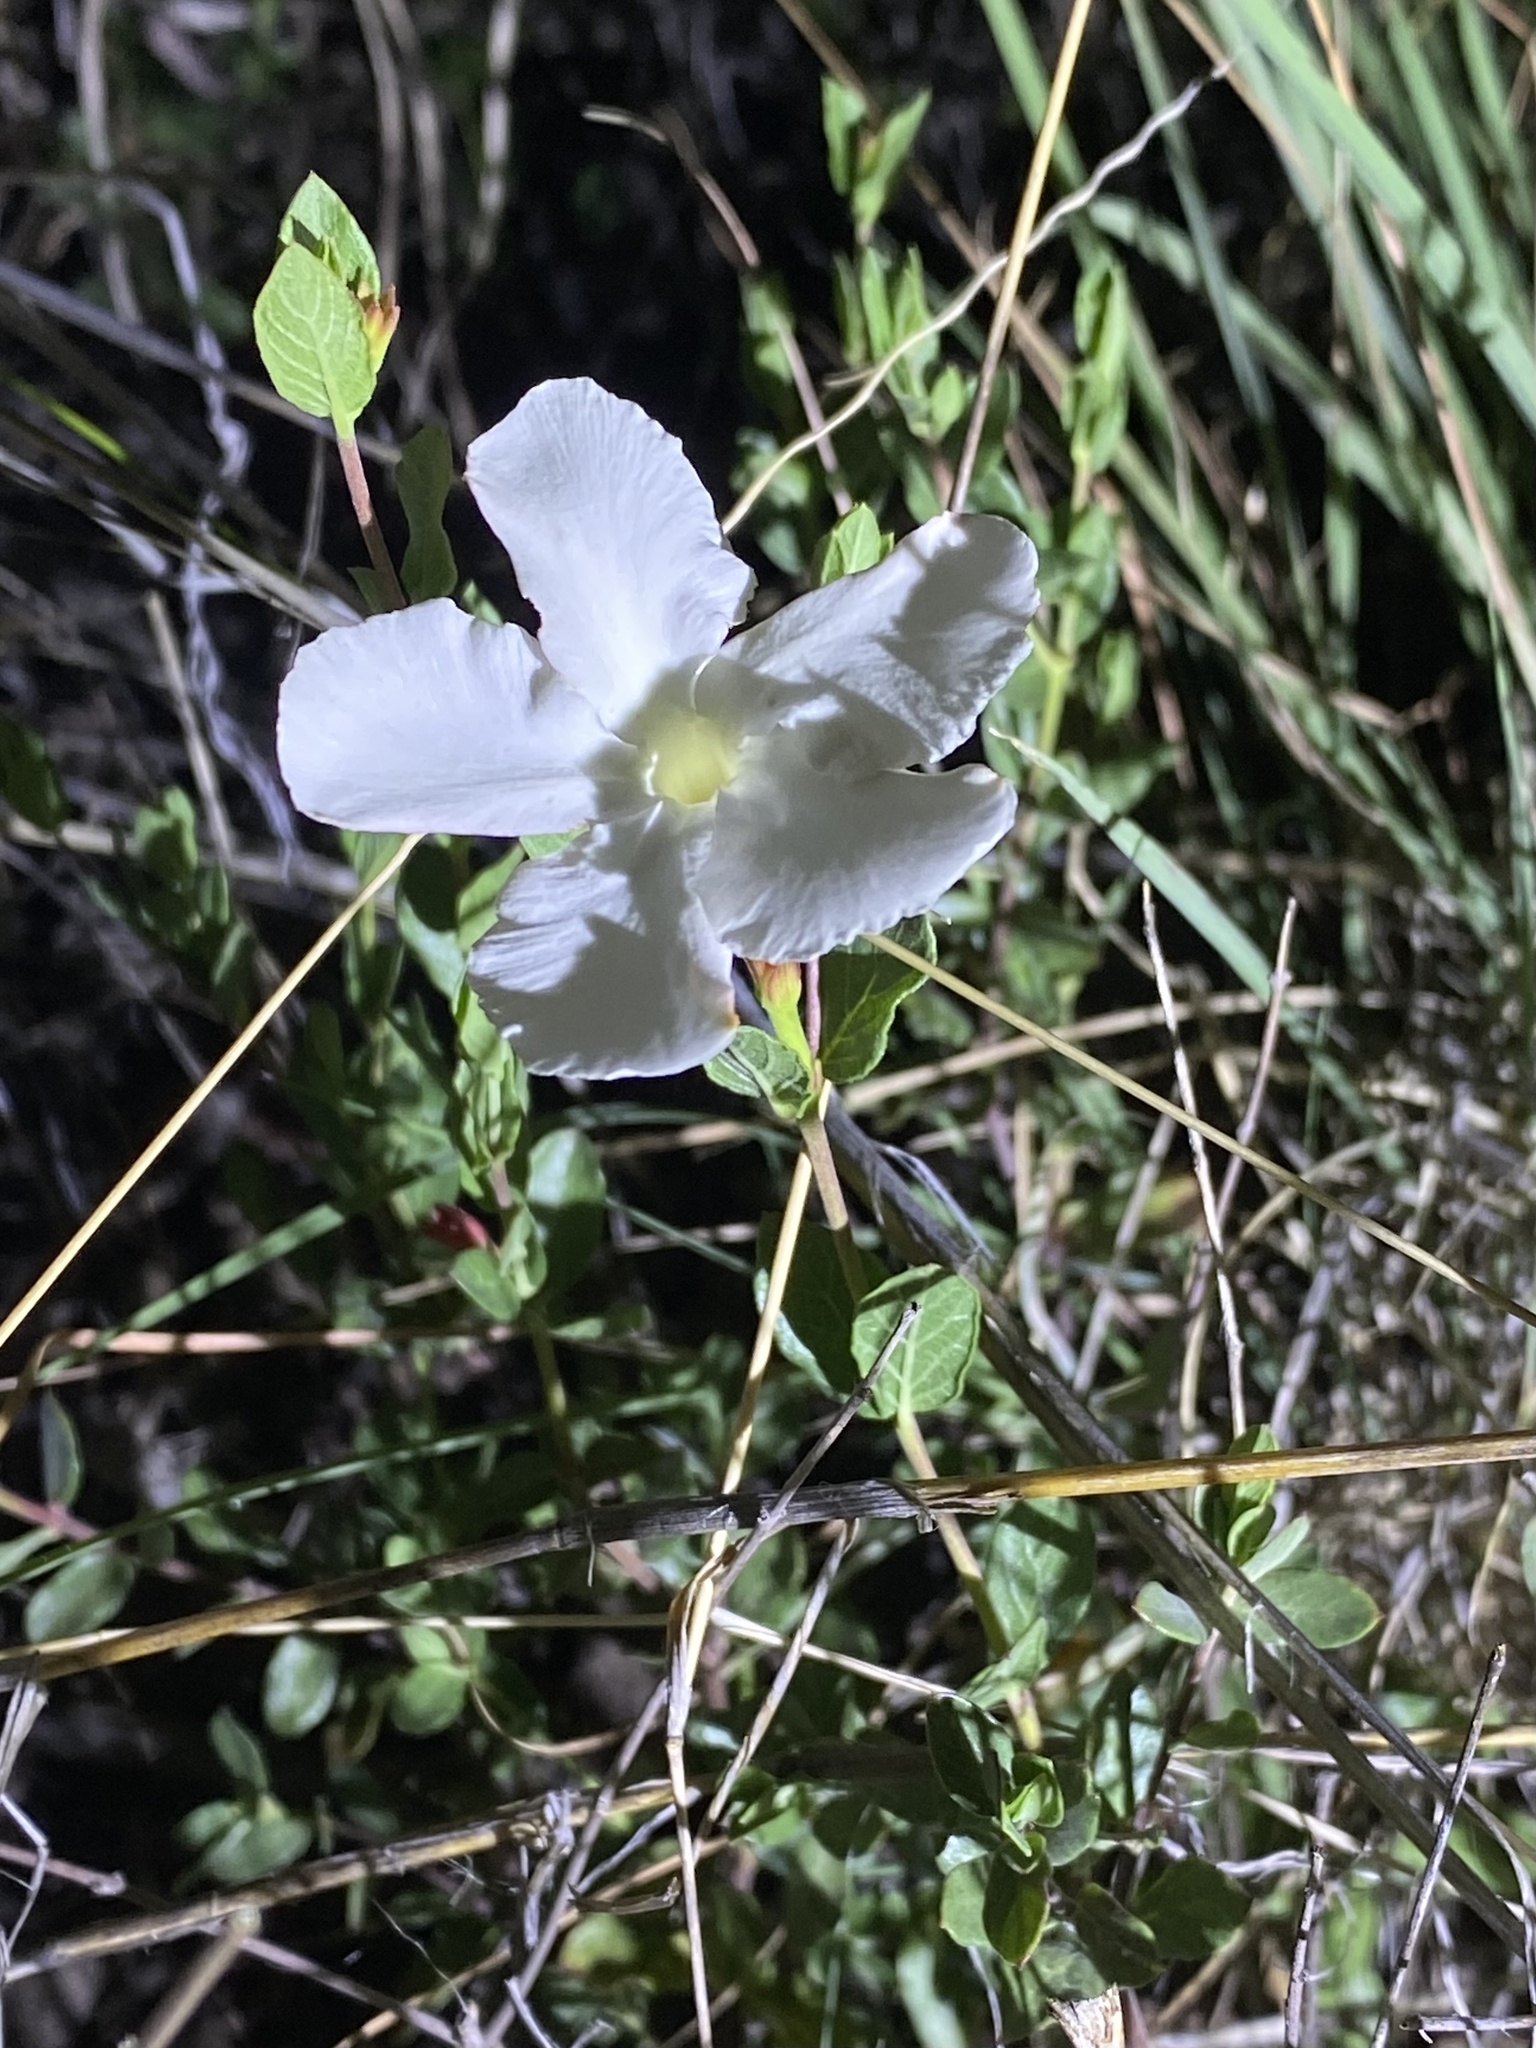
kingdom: Plantae
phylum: Tracheophyta
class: Magnoliopsida
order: Gentianales
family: Apocynaceae
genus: Mandevilla
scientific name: Mandevilla brachysiphon
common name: Huachuca mountain rocktrumpet
